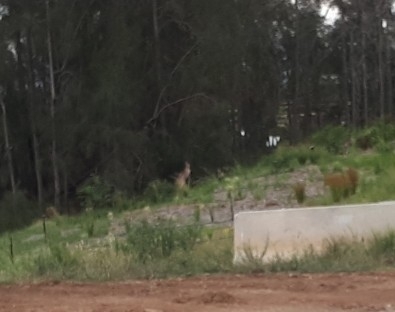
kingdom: Animalia
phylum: Chordata
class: Mammalia
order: Diprotodontia
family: Macropodidae
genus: Macropus
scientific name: Macropus giganteus
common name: Eastern grey kangaroo
